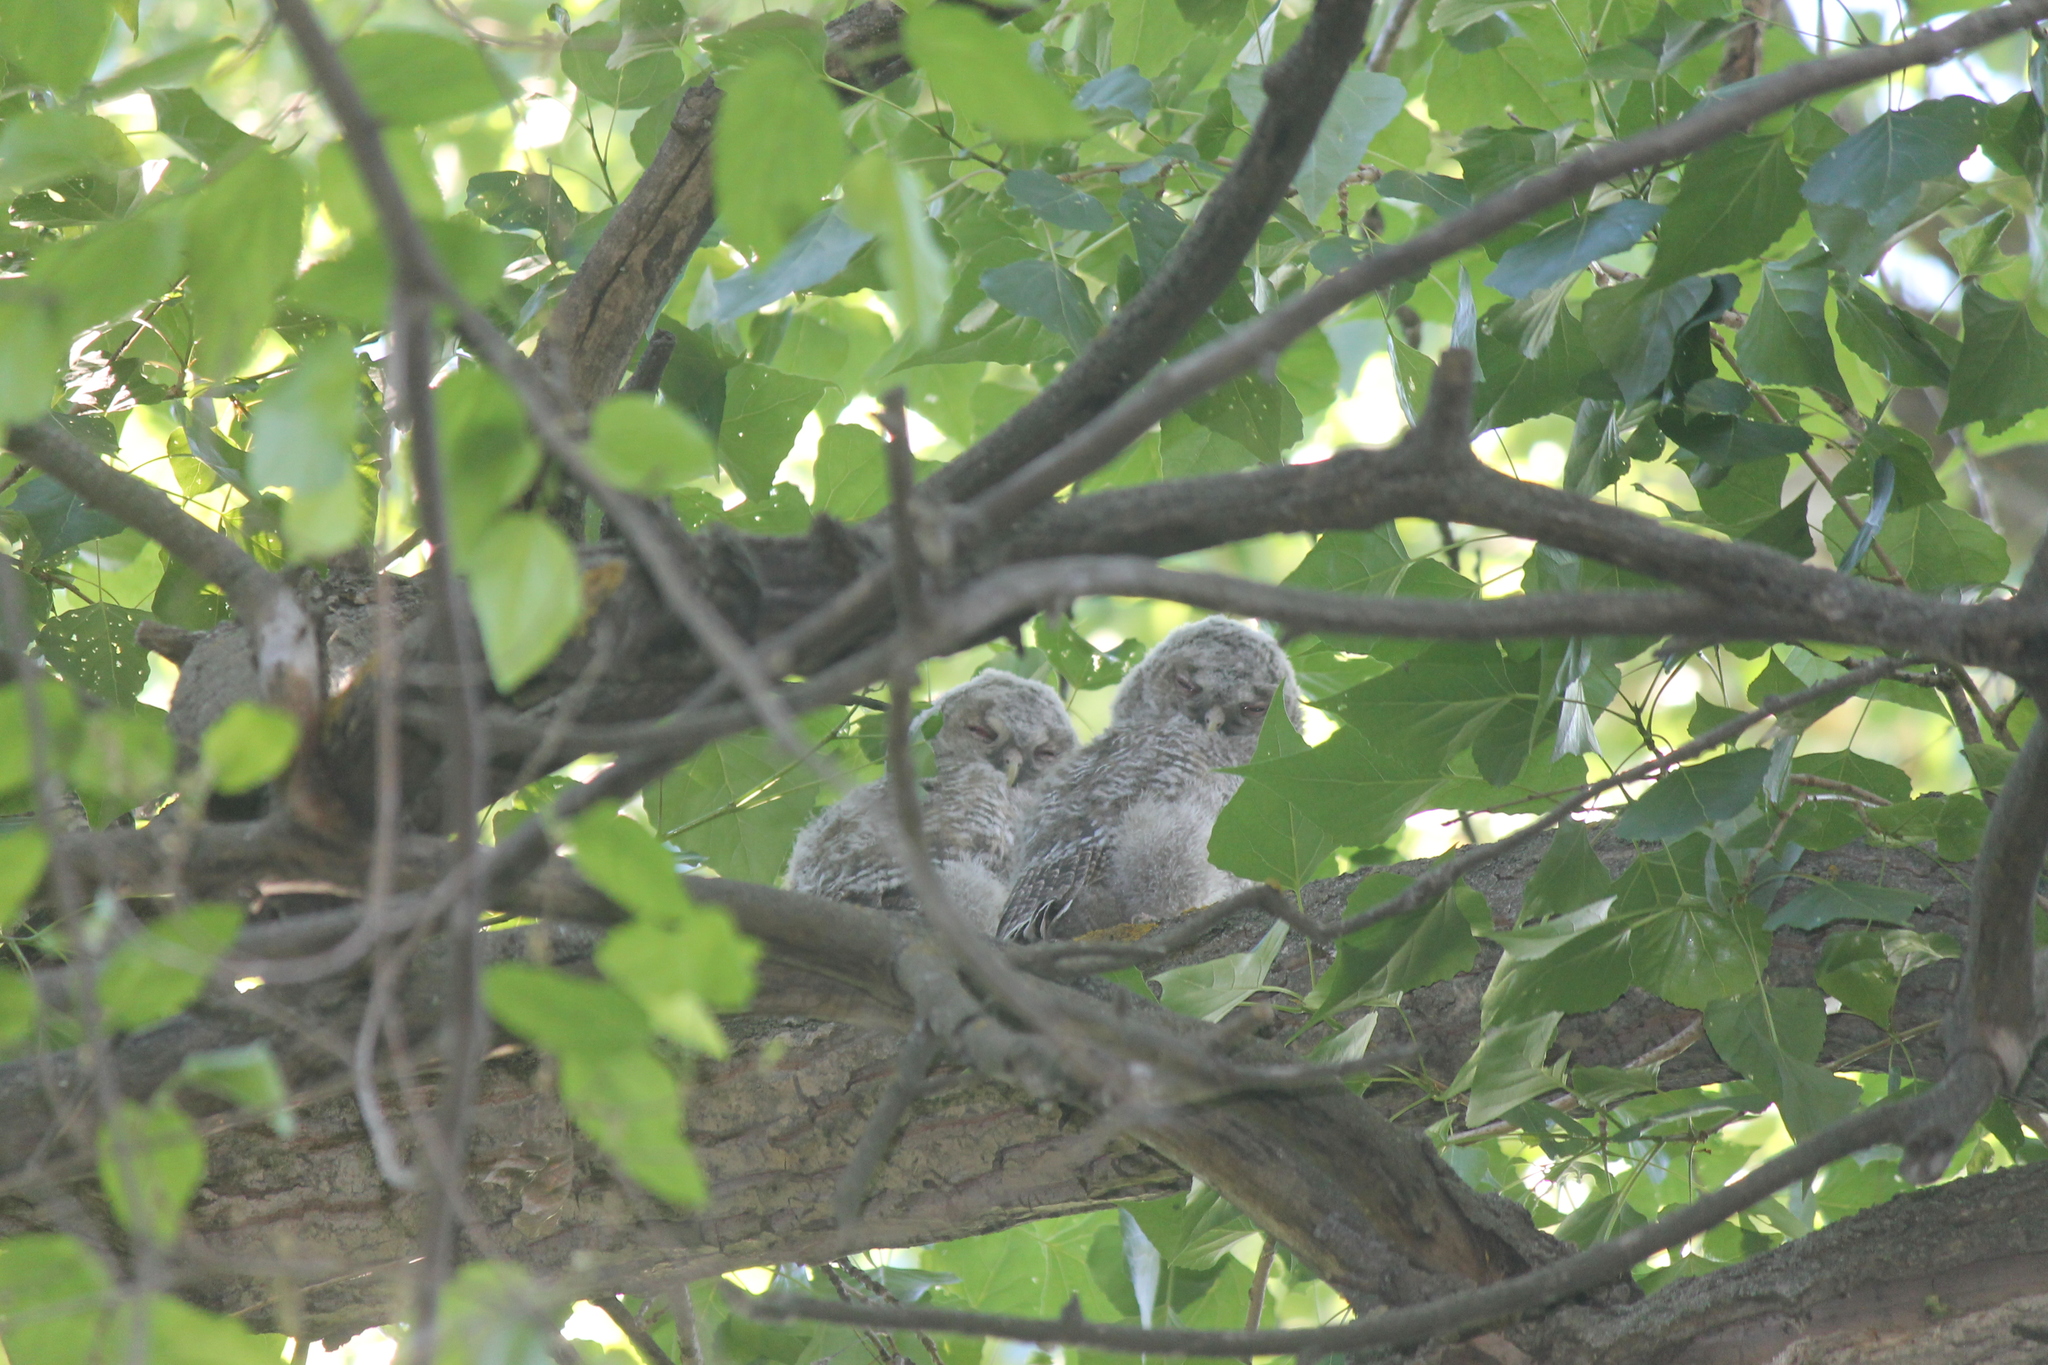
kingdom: Animalia
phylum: Chordata
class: Aves
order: Strigiformes
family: Strigidae
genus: Strix
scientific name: Strix aluco
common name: Tawny owl
